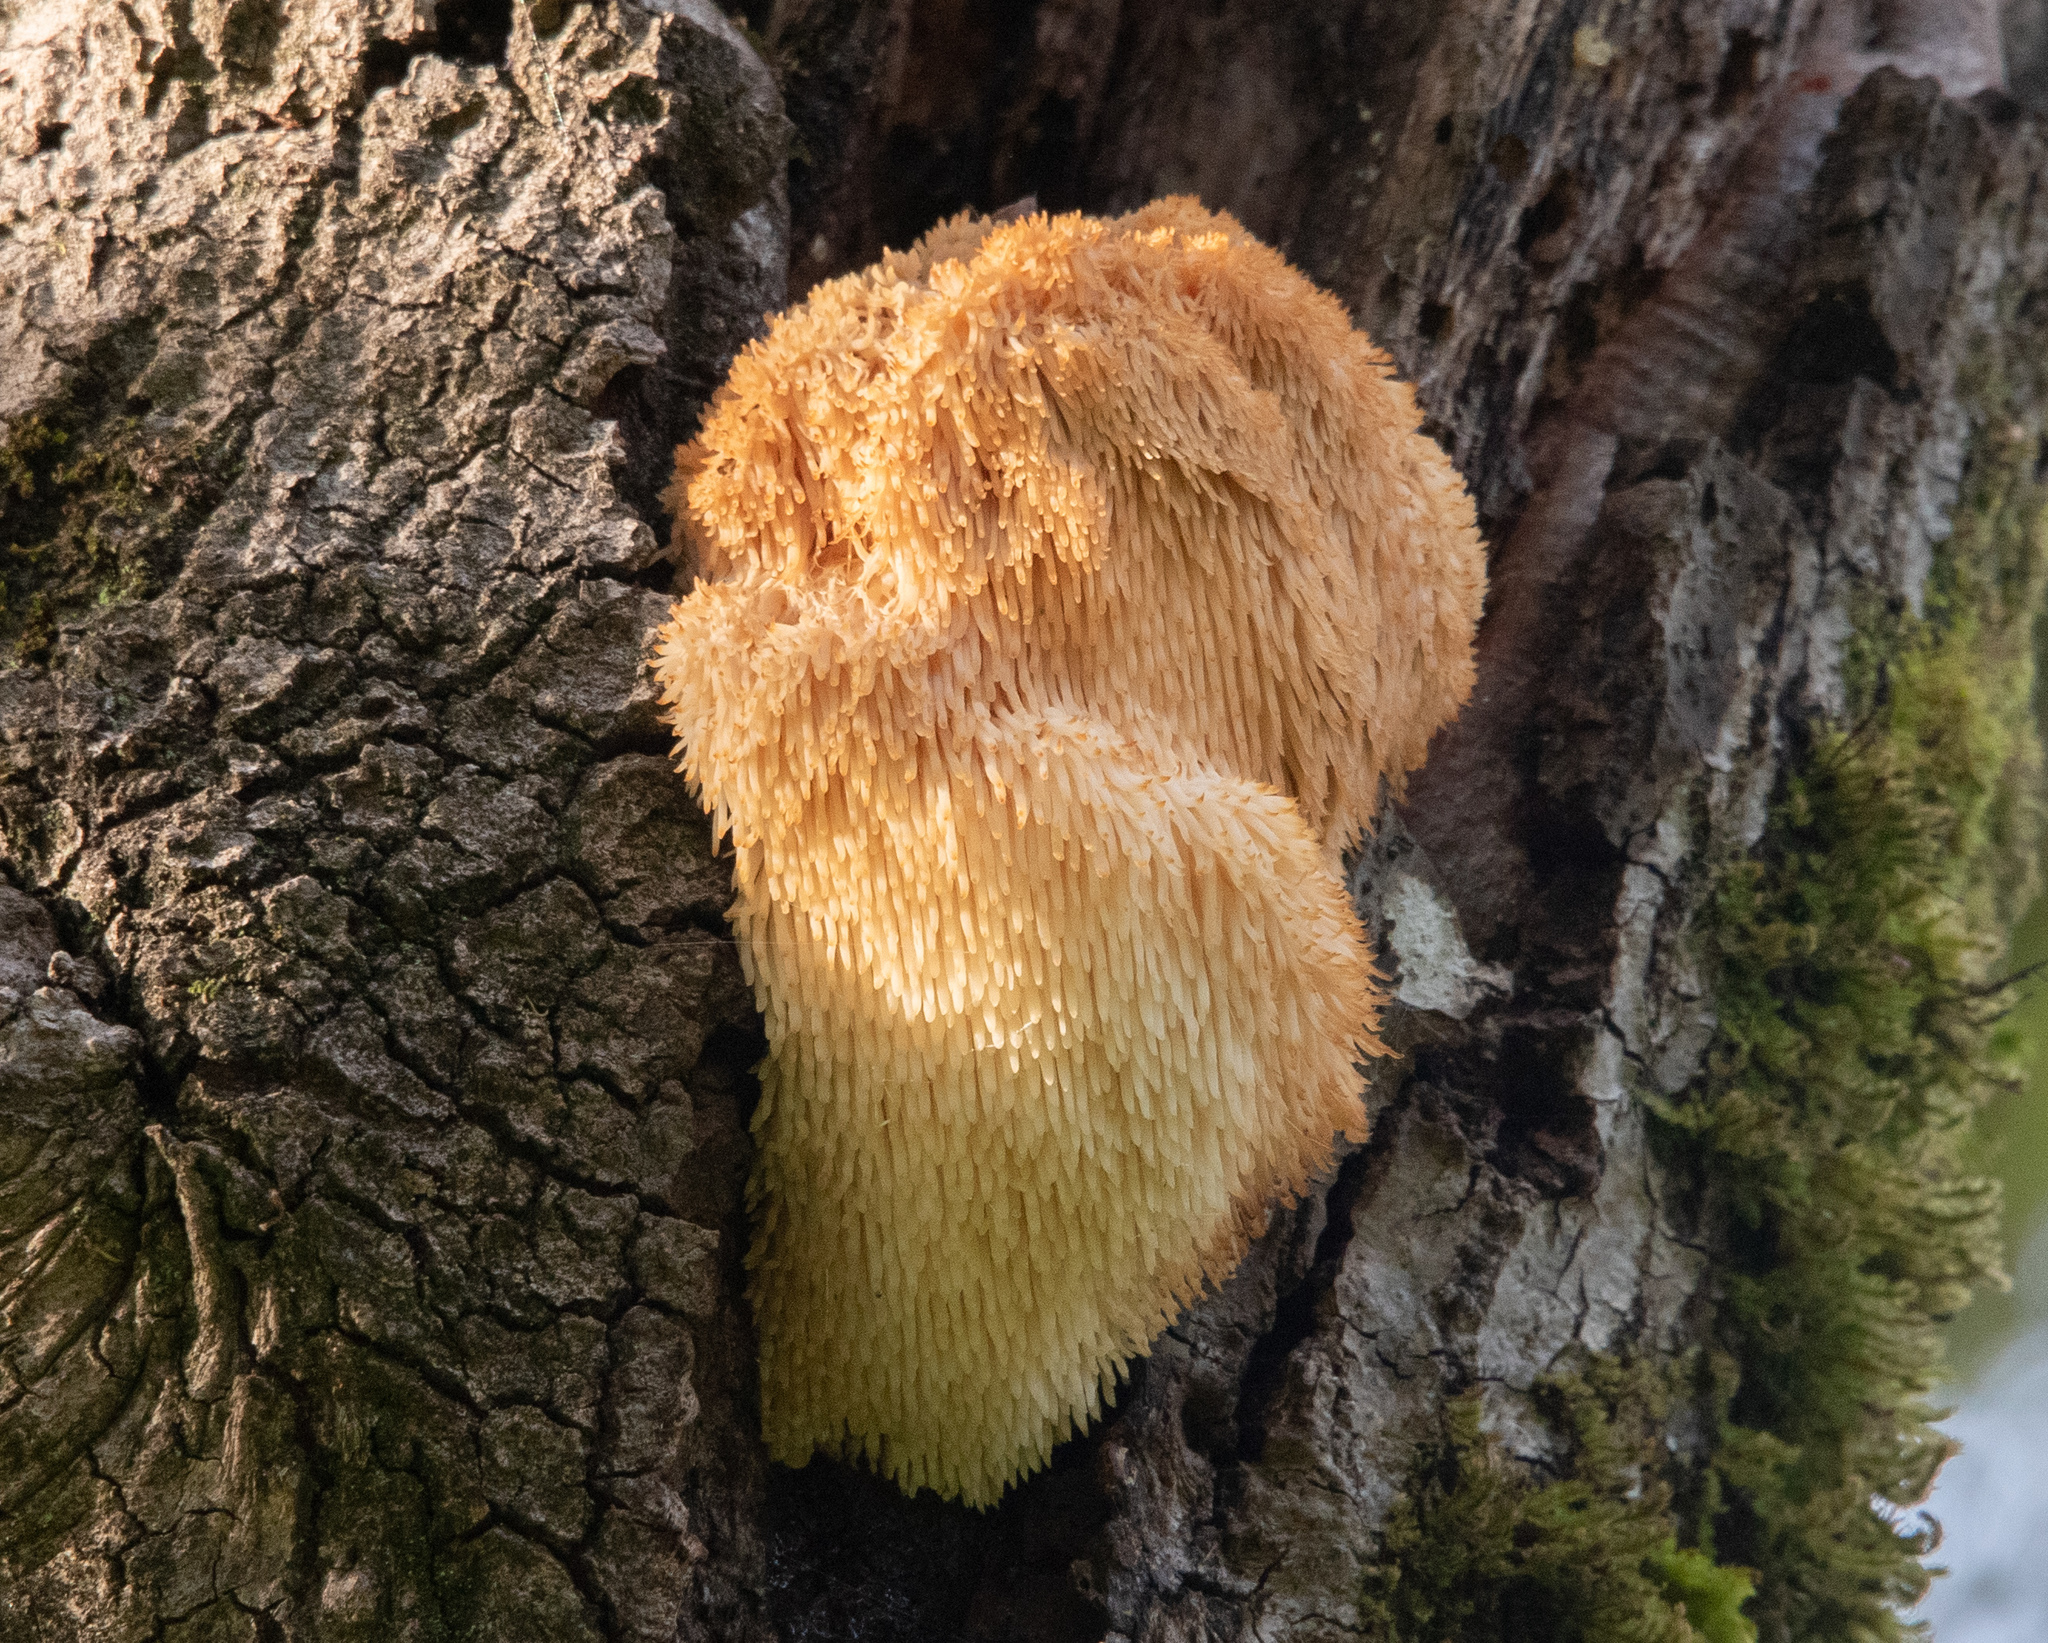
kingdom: Fungi
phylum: Basidiomycota
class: Agaricomycetes
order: Russulales
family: Hericiaceae
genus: Hericium
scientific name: Hericium erinaceus
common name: Bearded tooth
